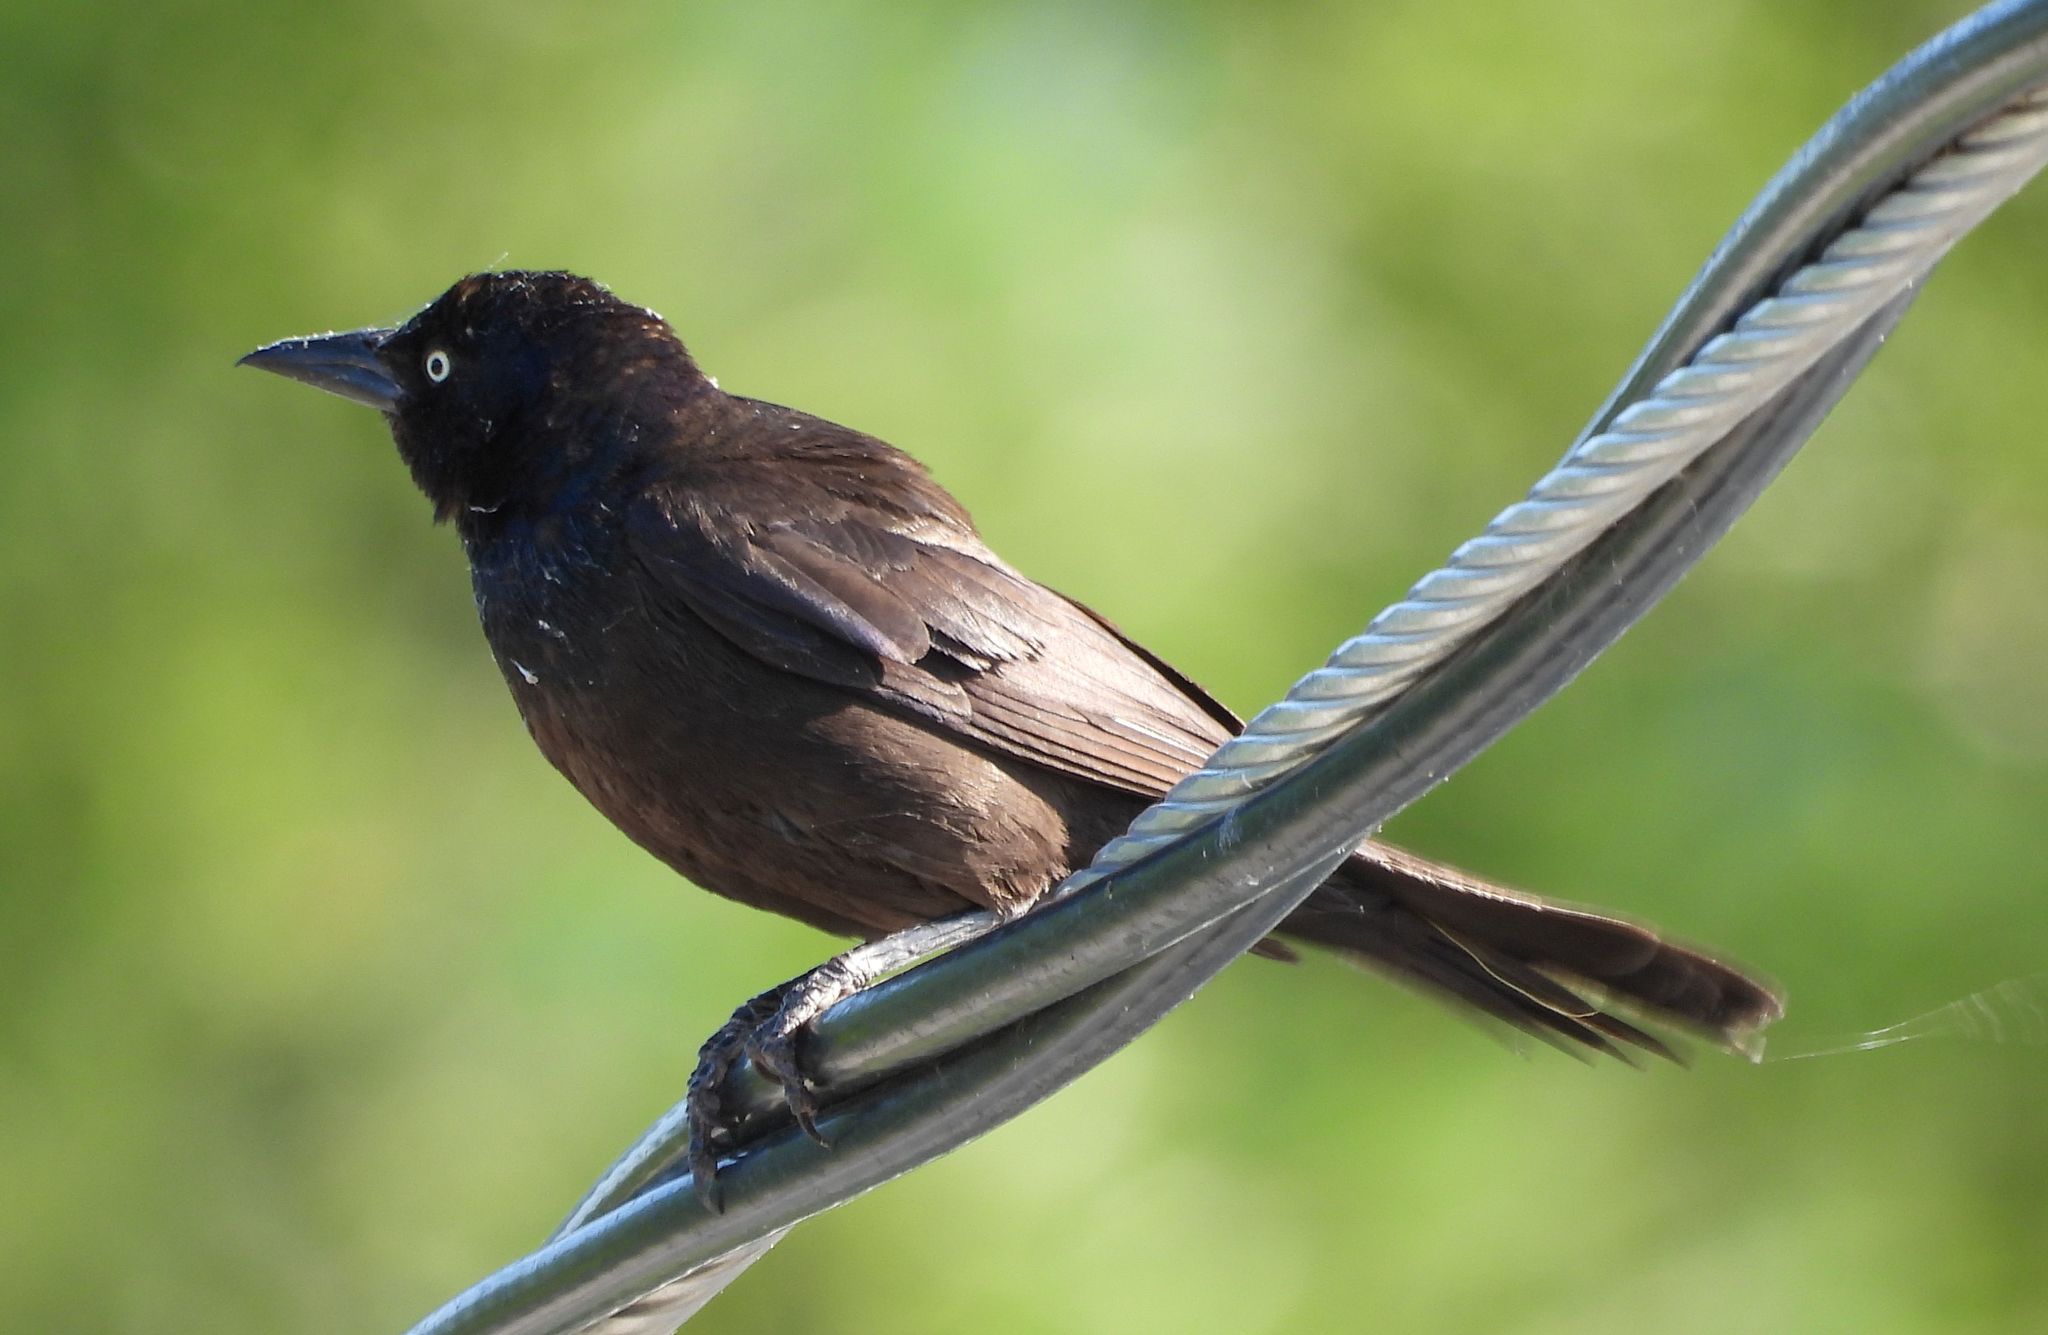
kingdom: Animalia
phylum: Chordata
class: Aves
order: Passeriformes
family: Icteridae
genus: Quiscalus
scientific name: Quiscalus quiscula
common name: Common grackle
